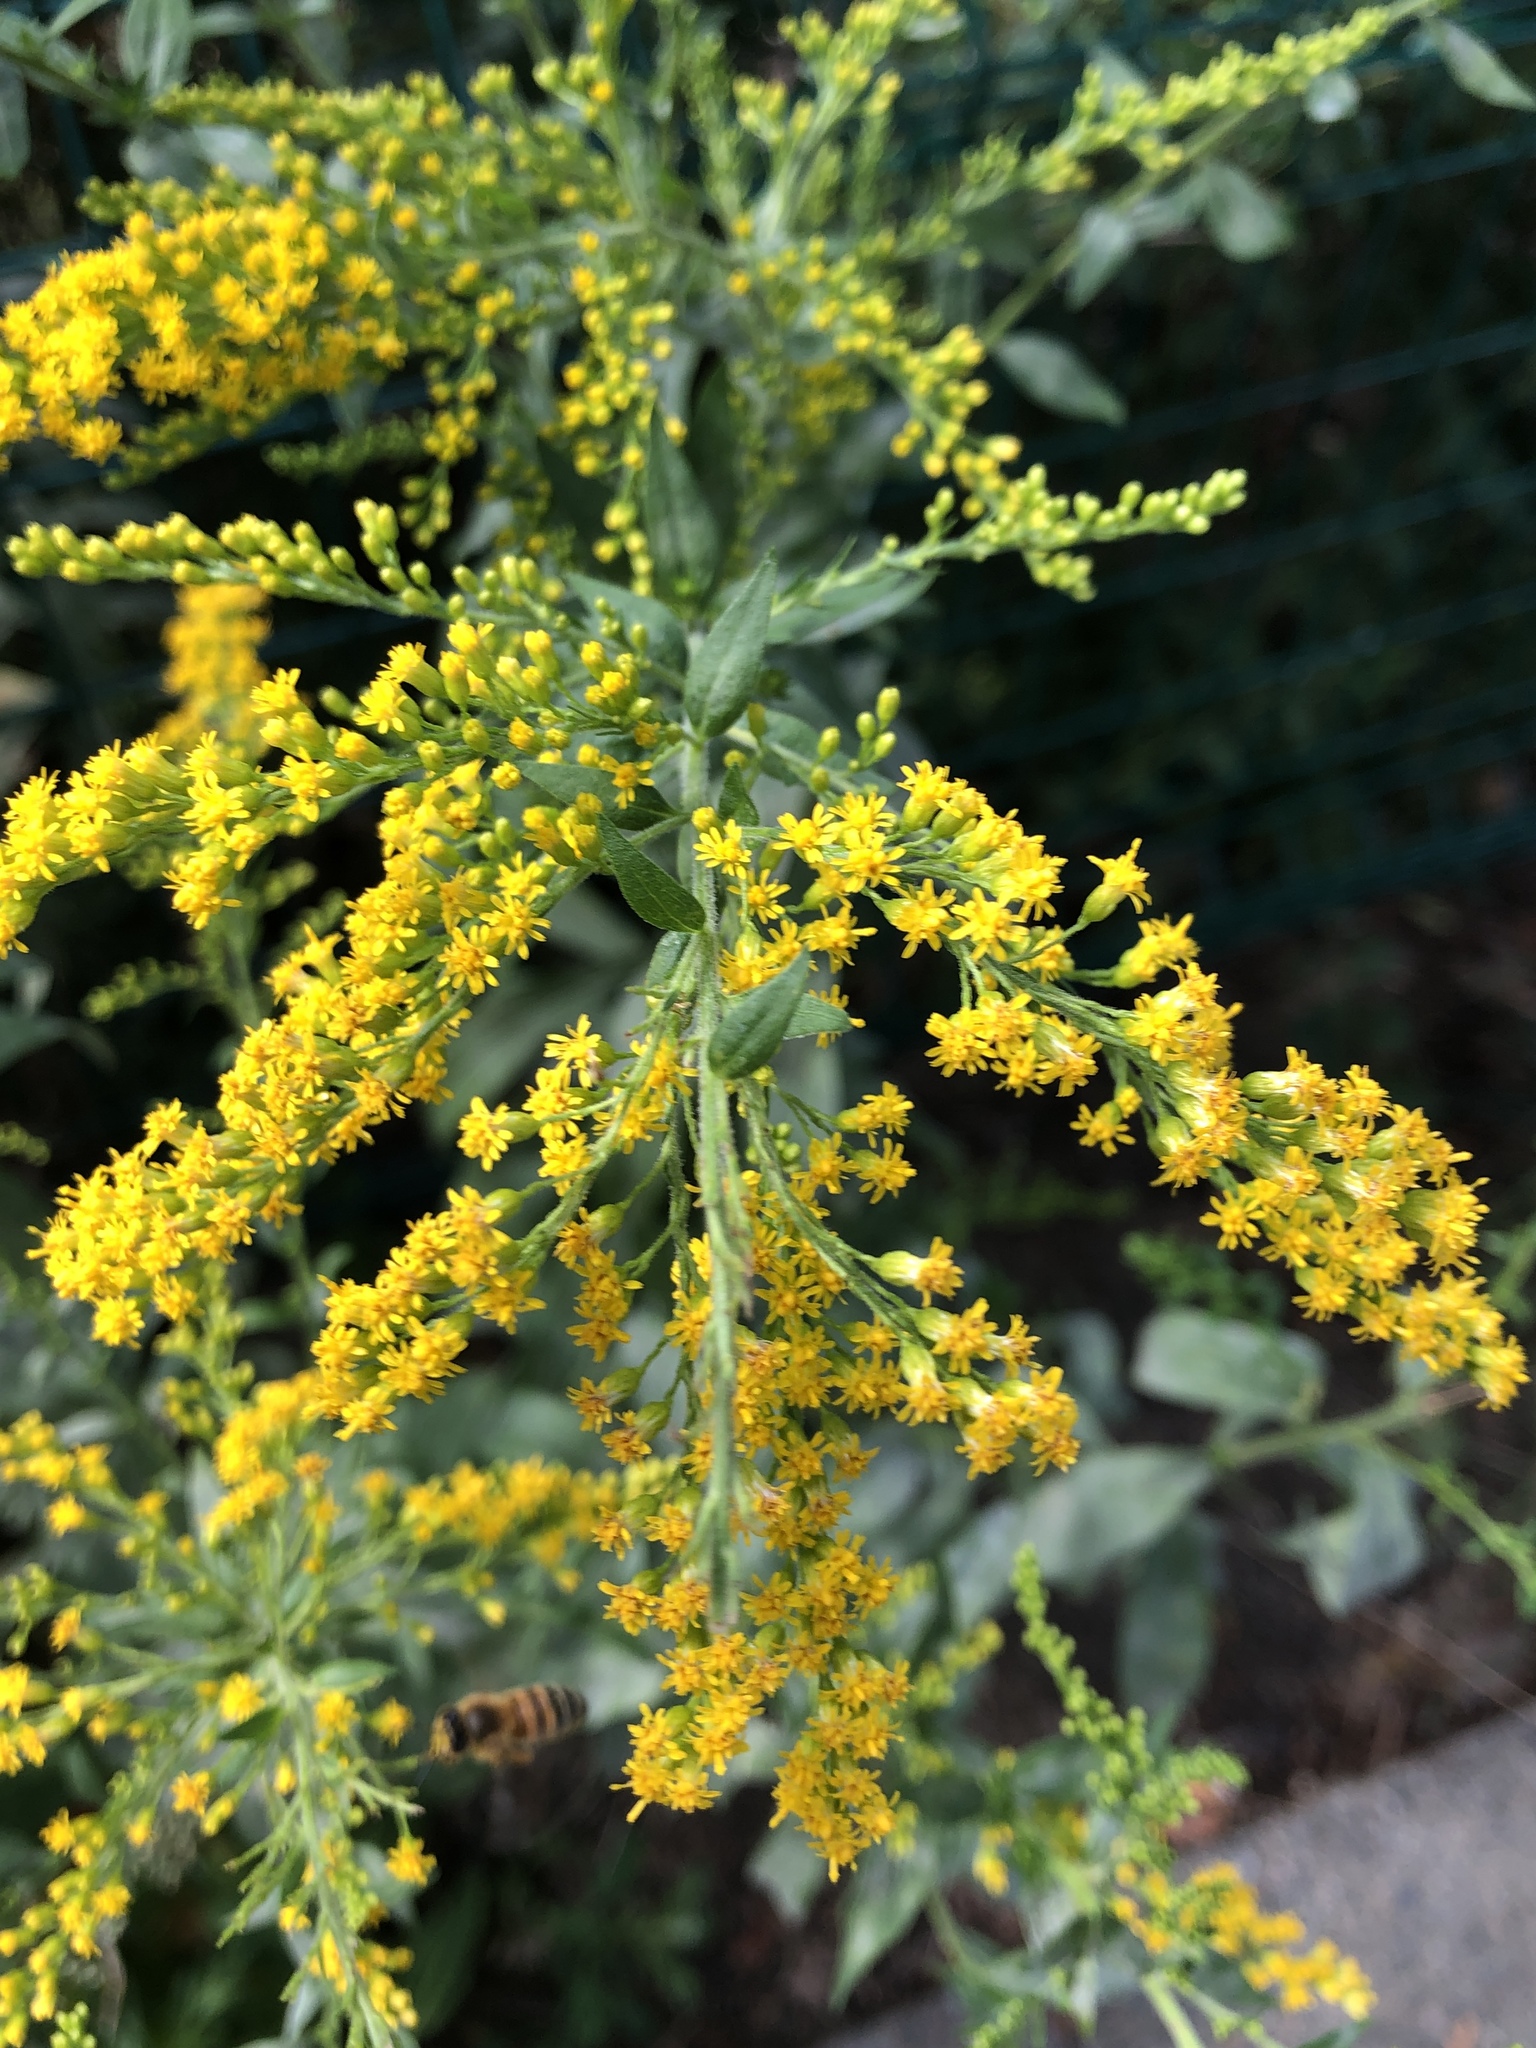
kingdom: Plantae
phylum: Tracheophyta
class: Magnoliopsida
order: Asterales
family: Asteraceae
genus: Solidago
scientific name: Solidago canadensis
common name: Canada goldenrod
